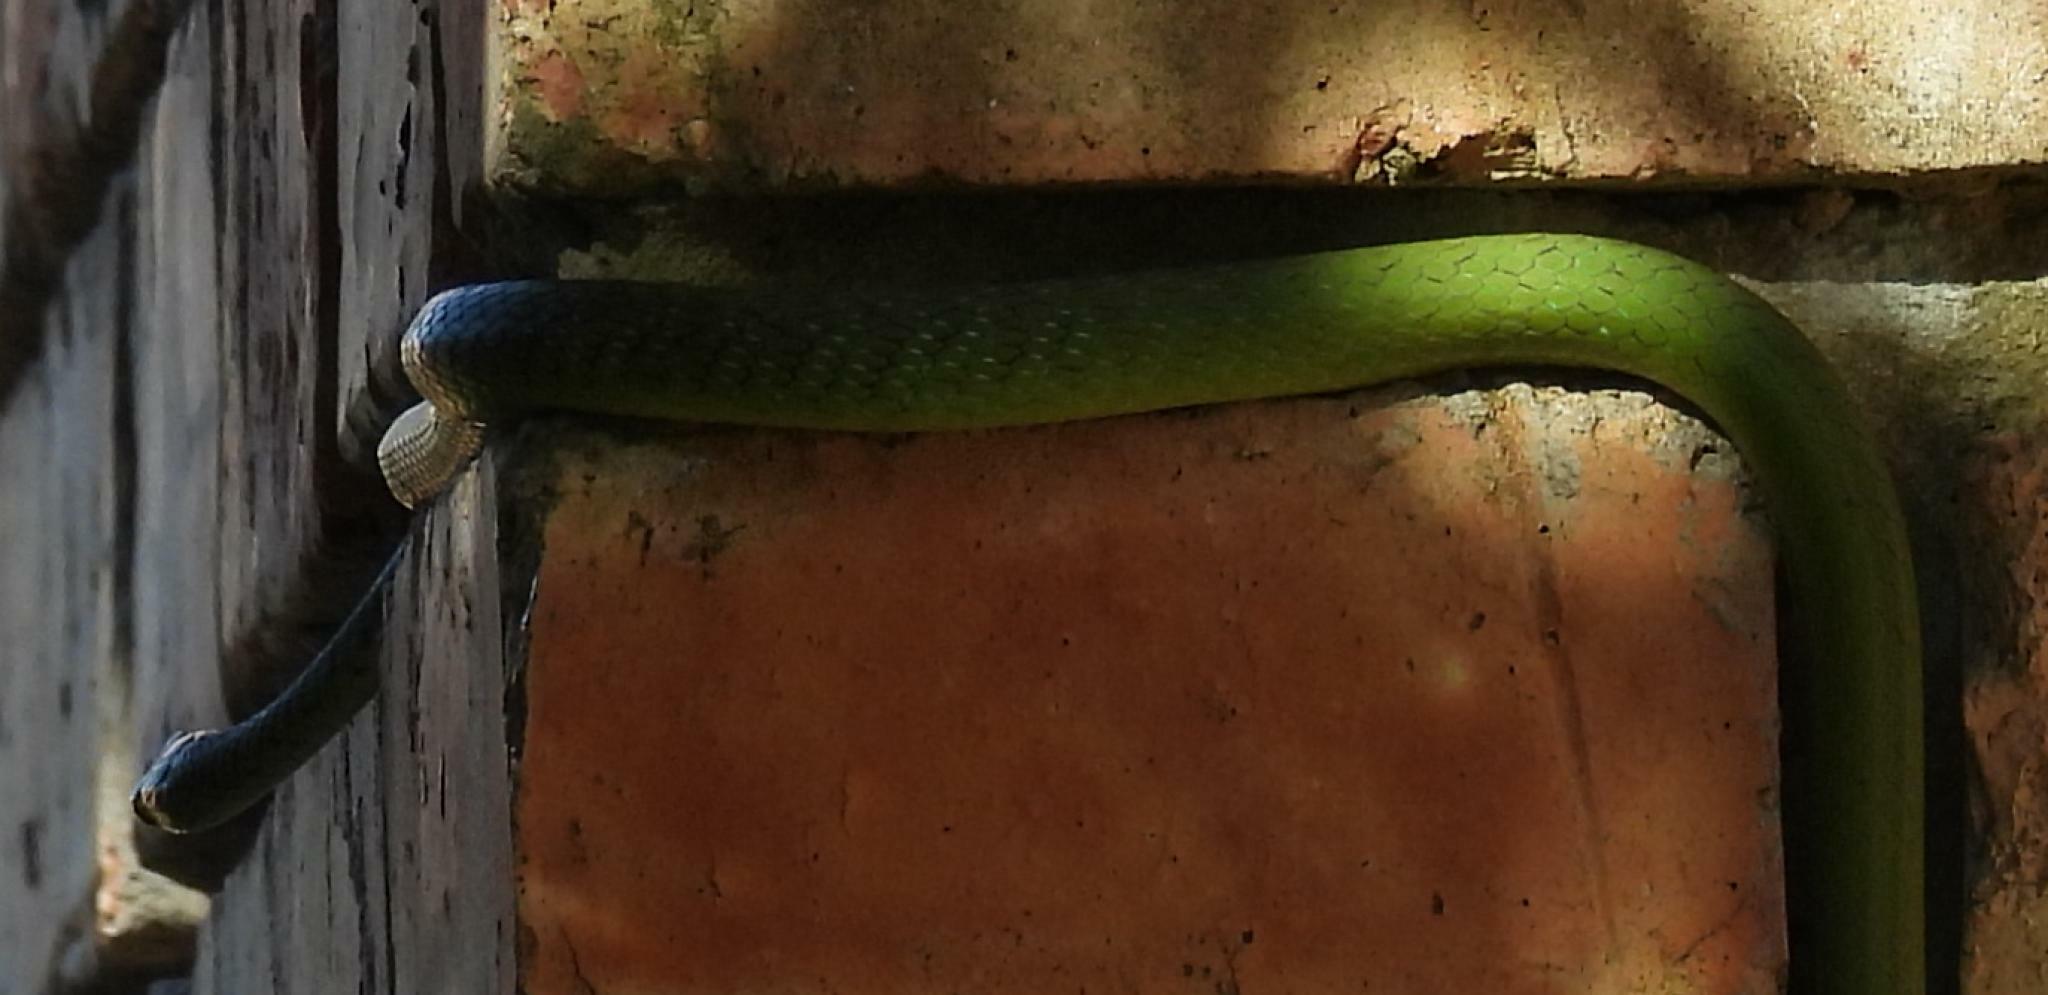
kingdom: Animalia
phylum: Chordata
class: Squamata
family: Colubridae
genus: Philothamnus
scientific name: Philothamnus semivariegatus
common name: Spotted bush snake
